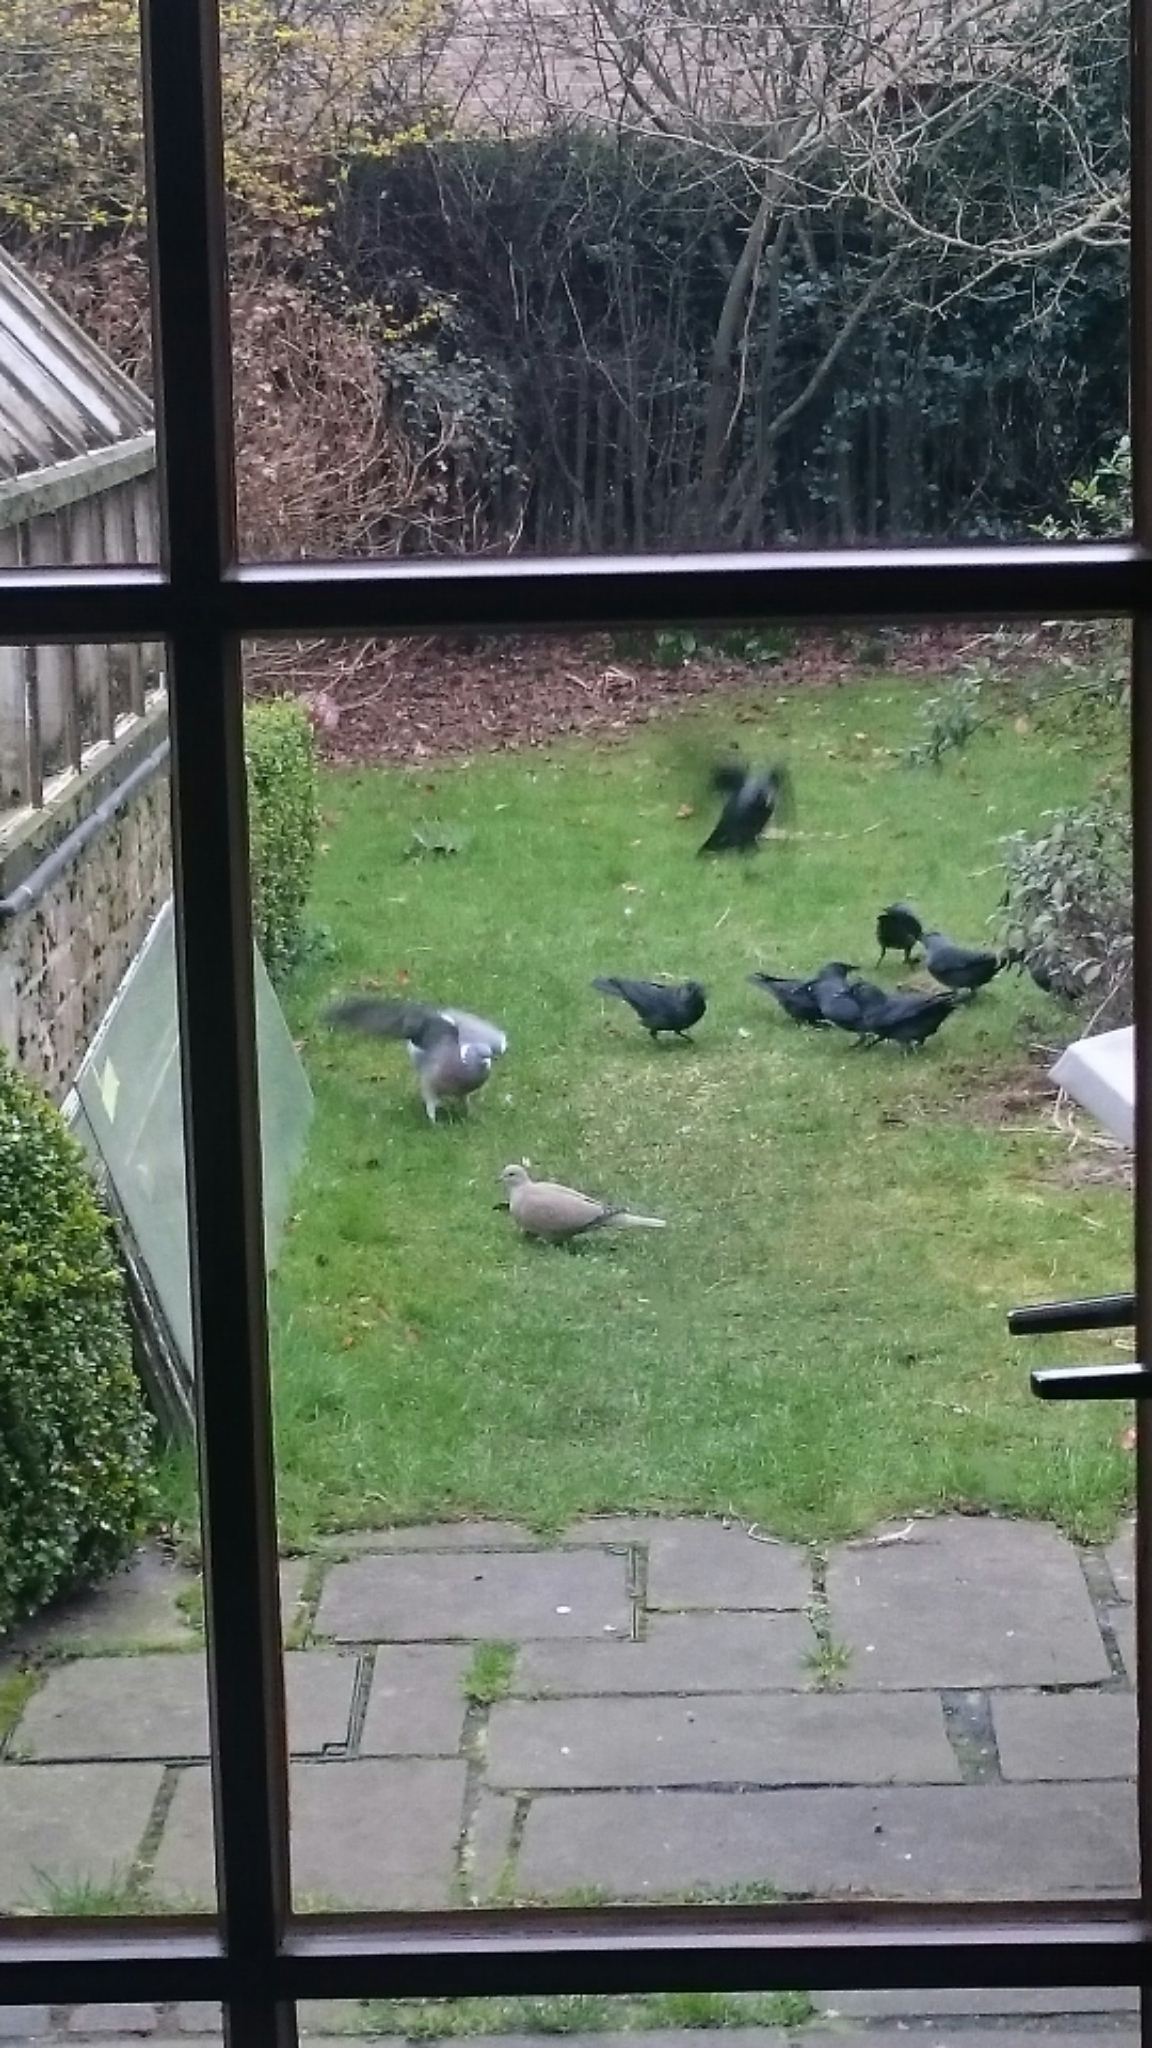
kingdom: Animalia
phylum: Chordata
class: Aves
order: Columbiformes
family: Columbidae
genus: Columba
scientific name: Columba palumbus
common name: Common wood pigeon
